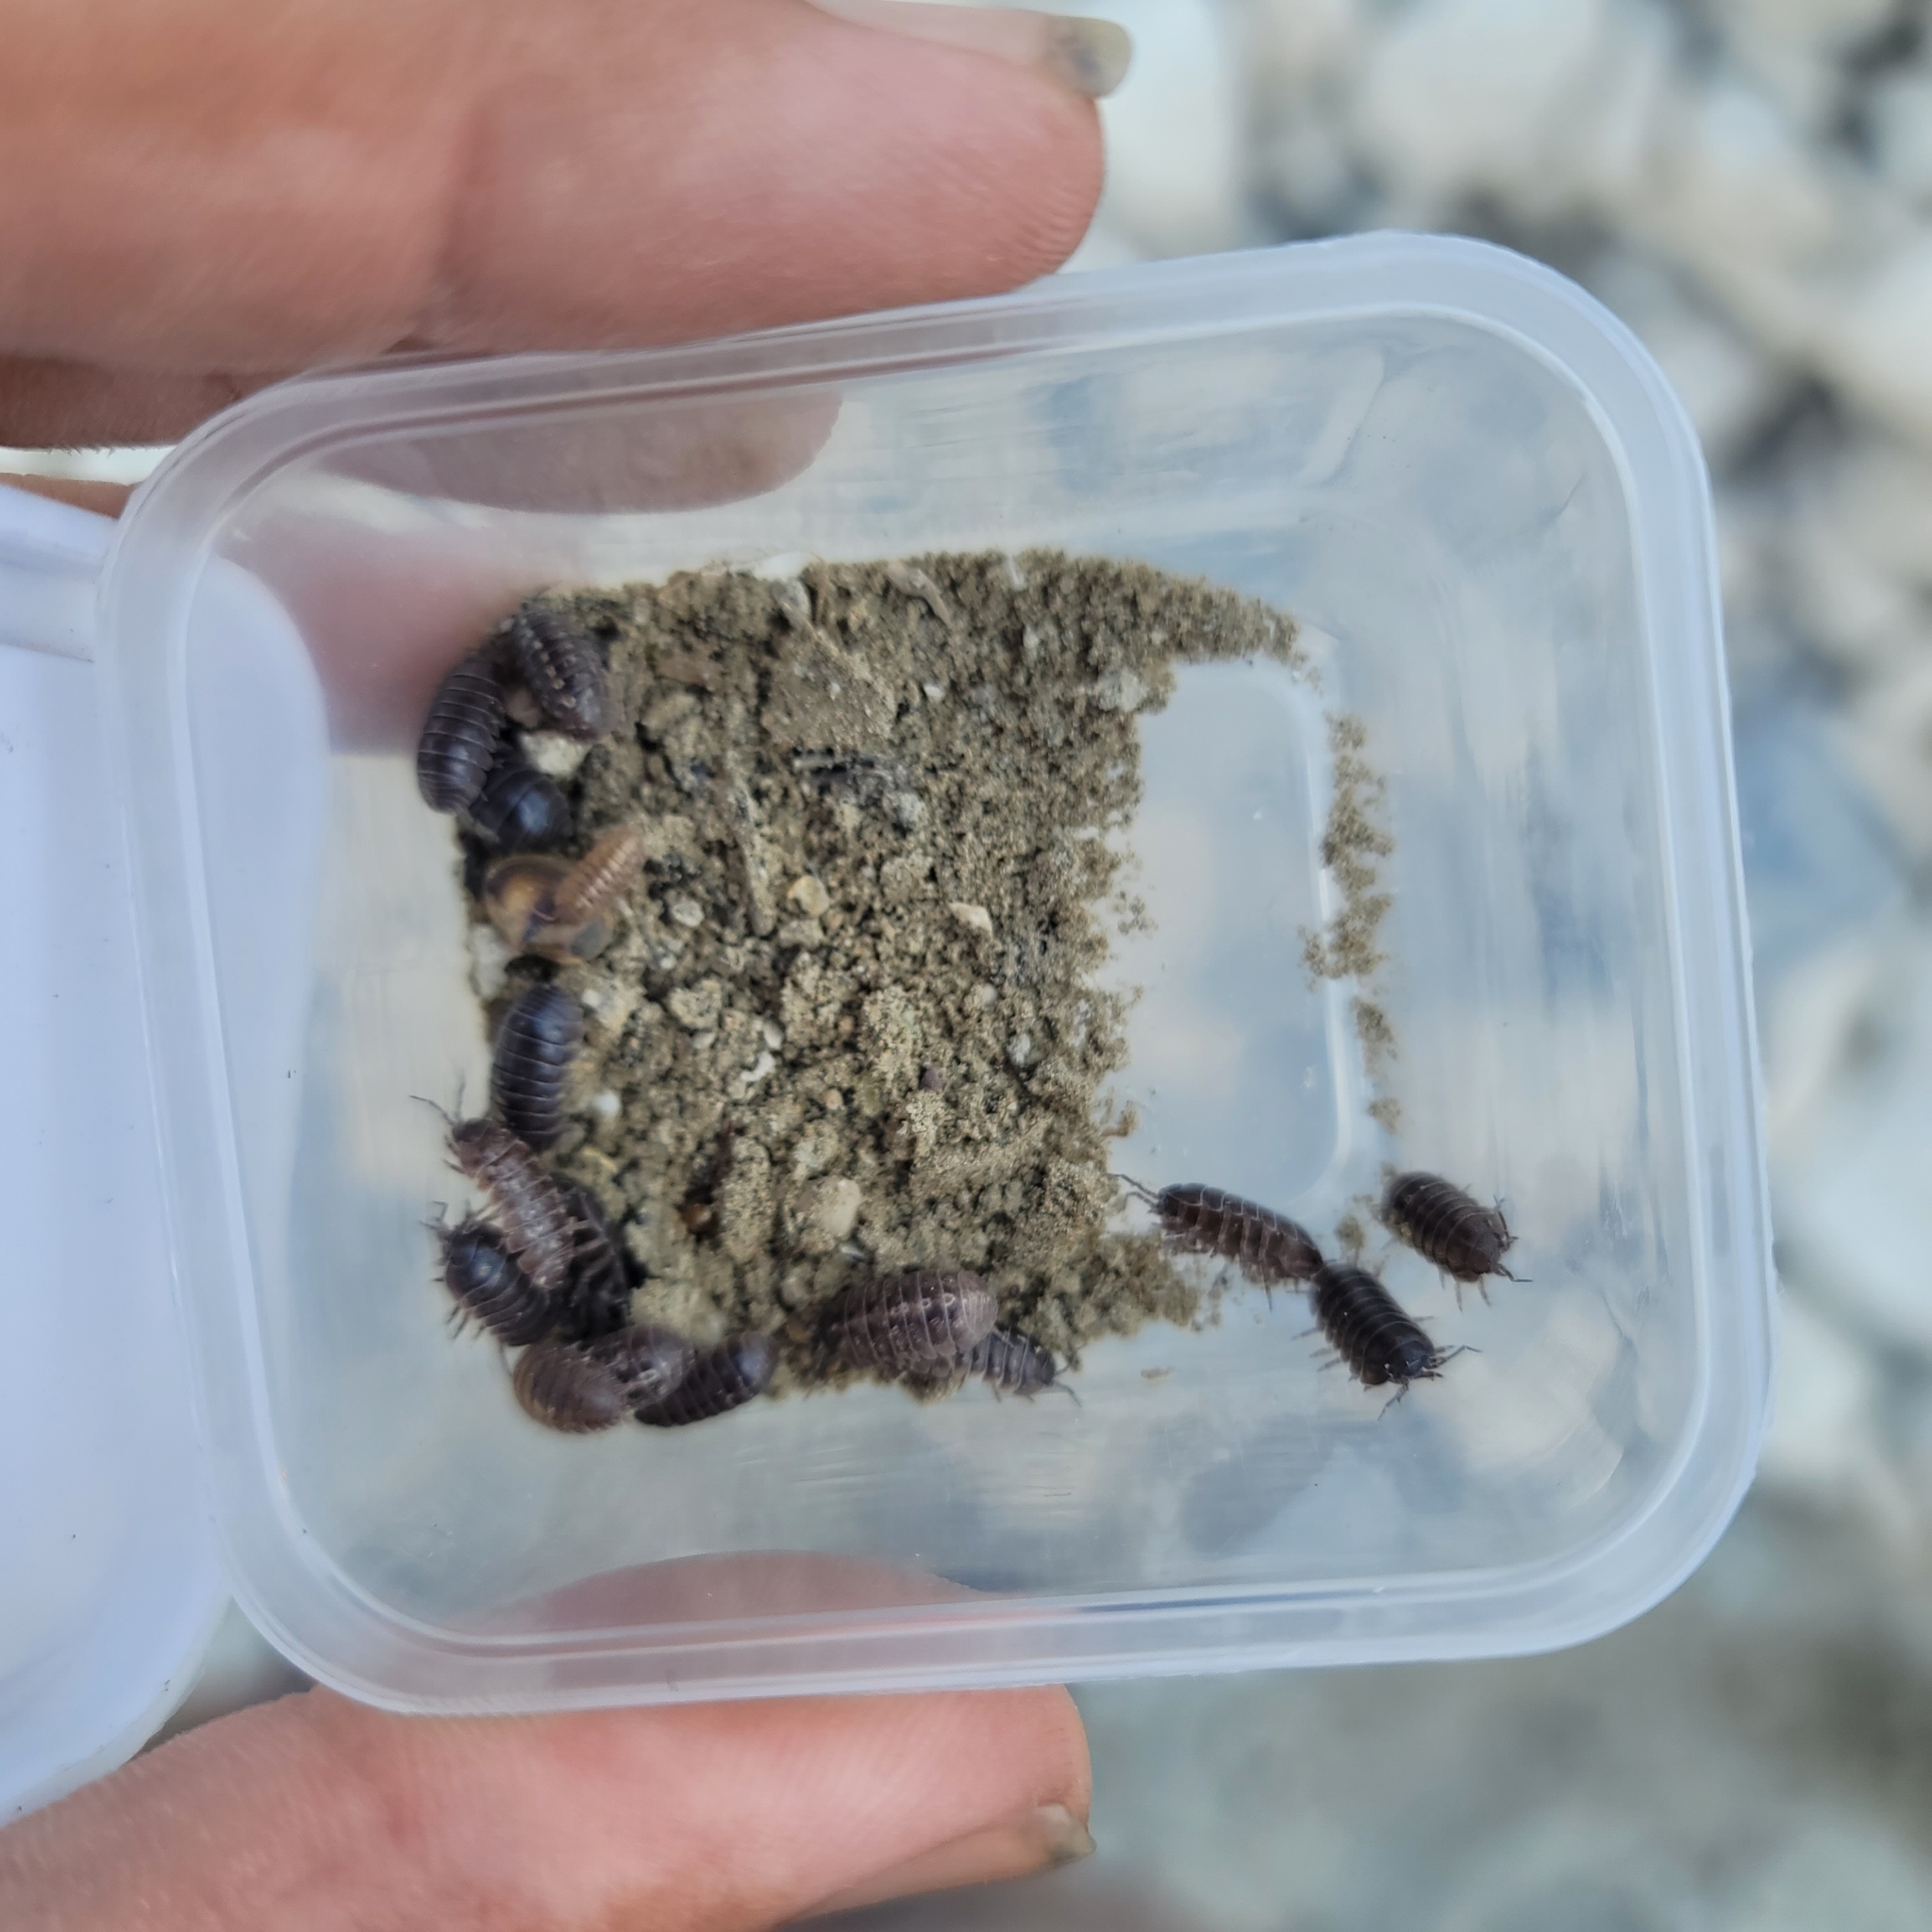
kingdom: Animalia
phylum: Arthropoda
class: Malacostraca
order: Isopoda
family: Armadillidiidae
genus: Armadillidium
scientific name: Armadillidium vulgare
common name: Common pill woodlouse
